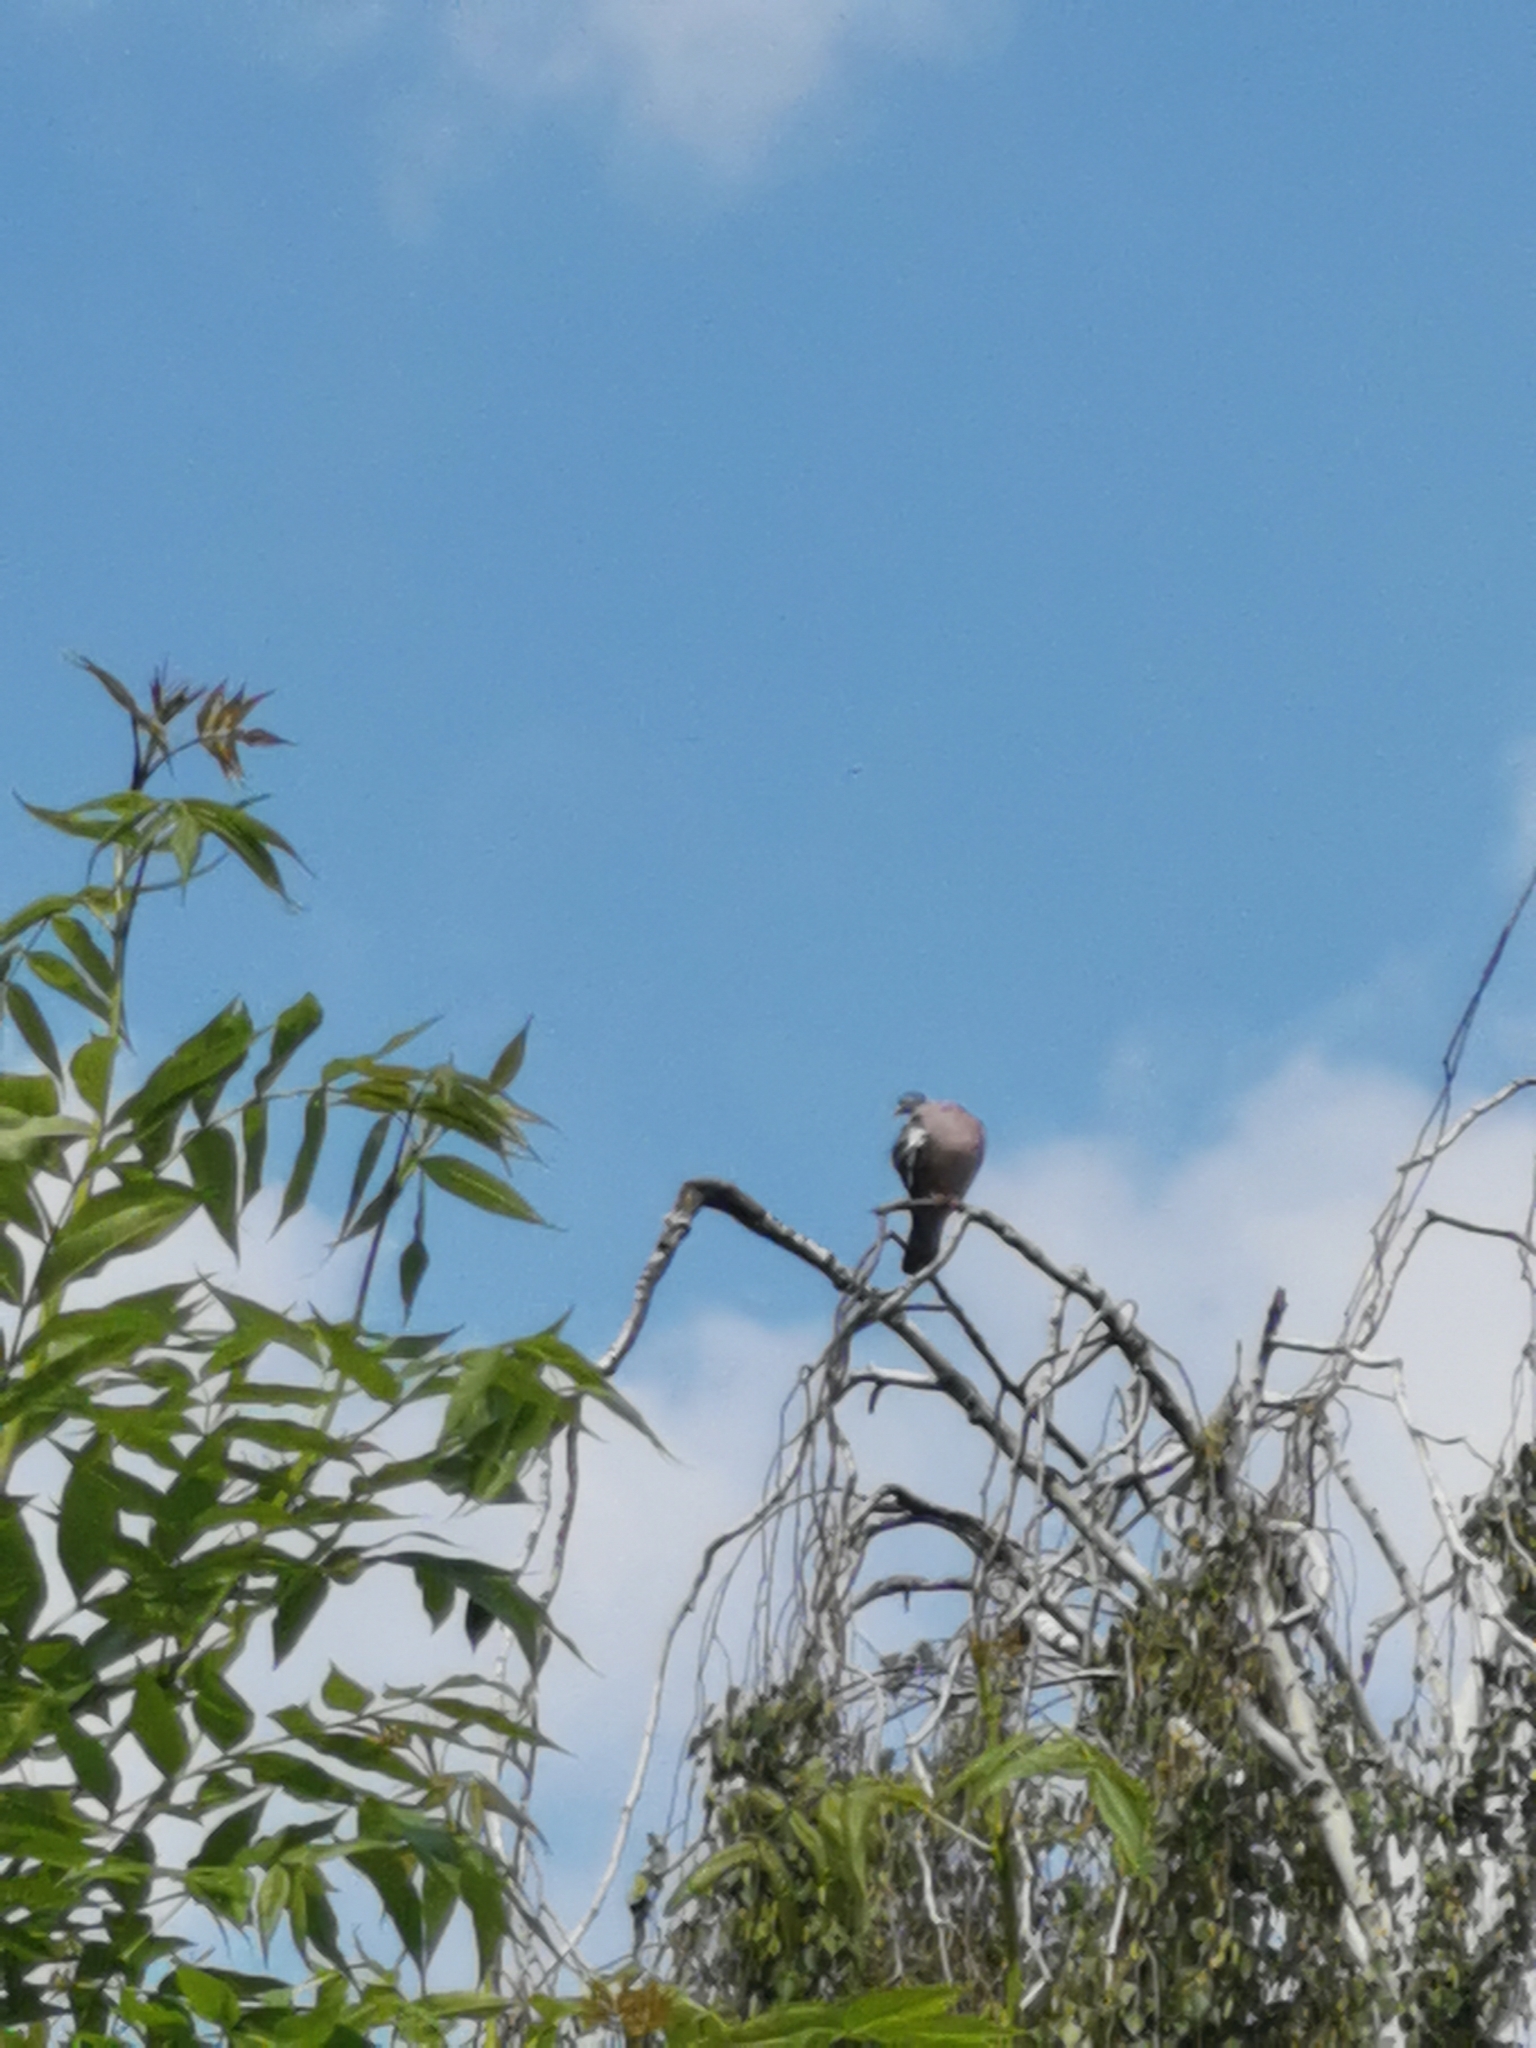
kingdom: Animalia
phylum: Chordata
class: Aves
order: Columbiformes
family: Columbidae
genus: Columba
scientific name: Columba palumbus
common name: Common wood pigeon
